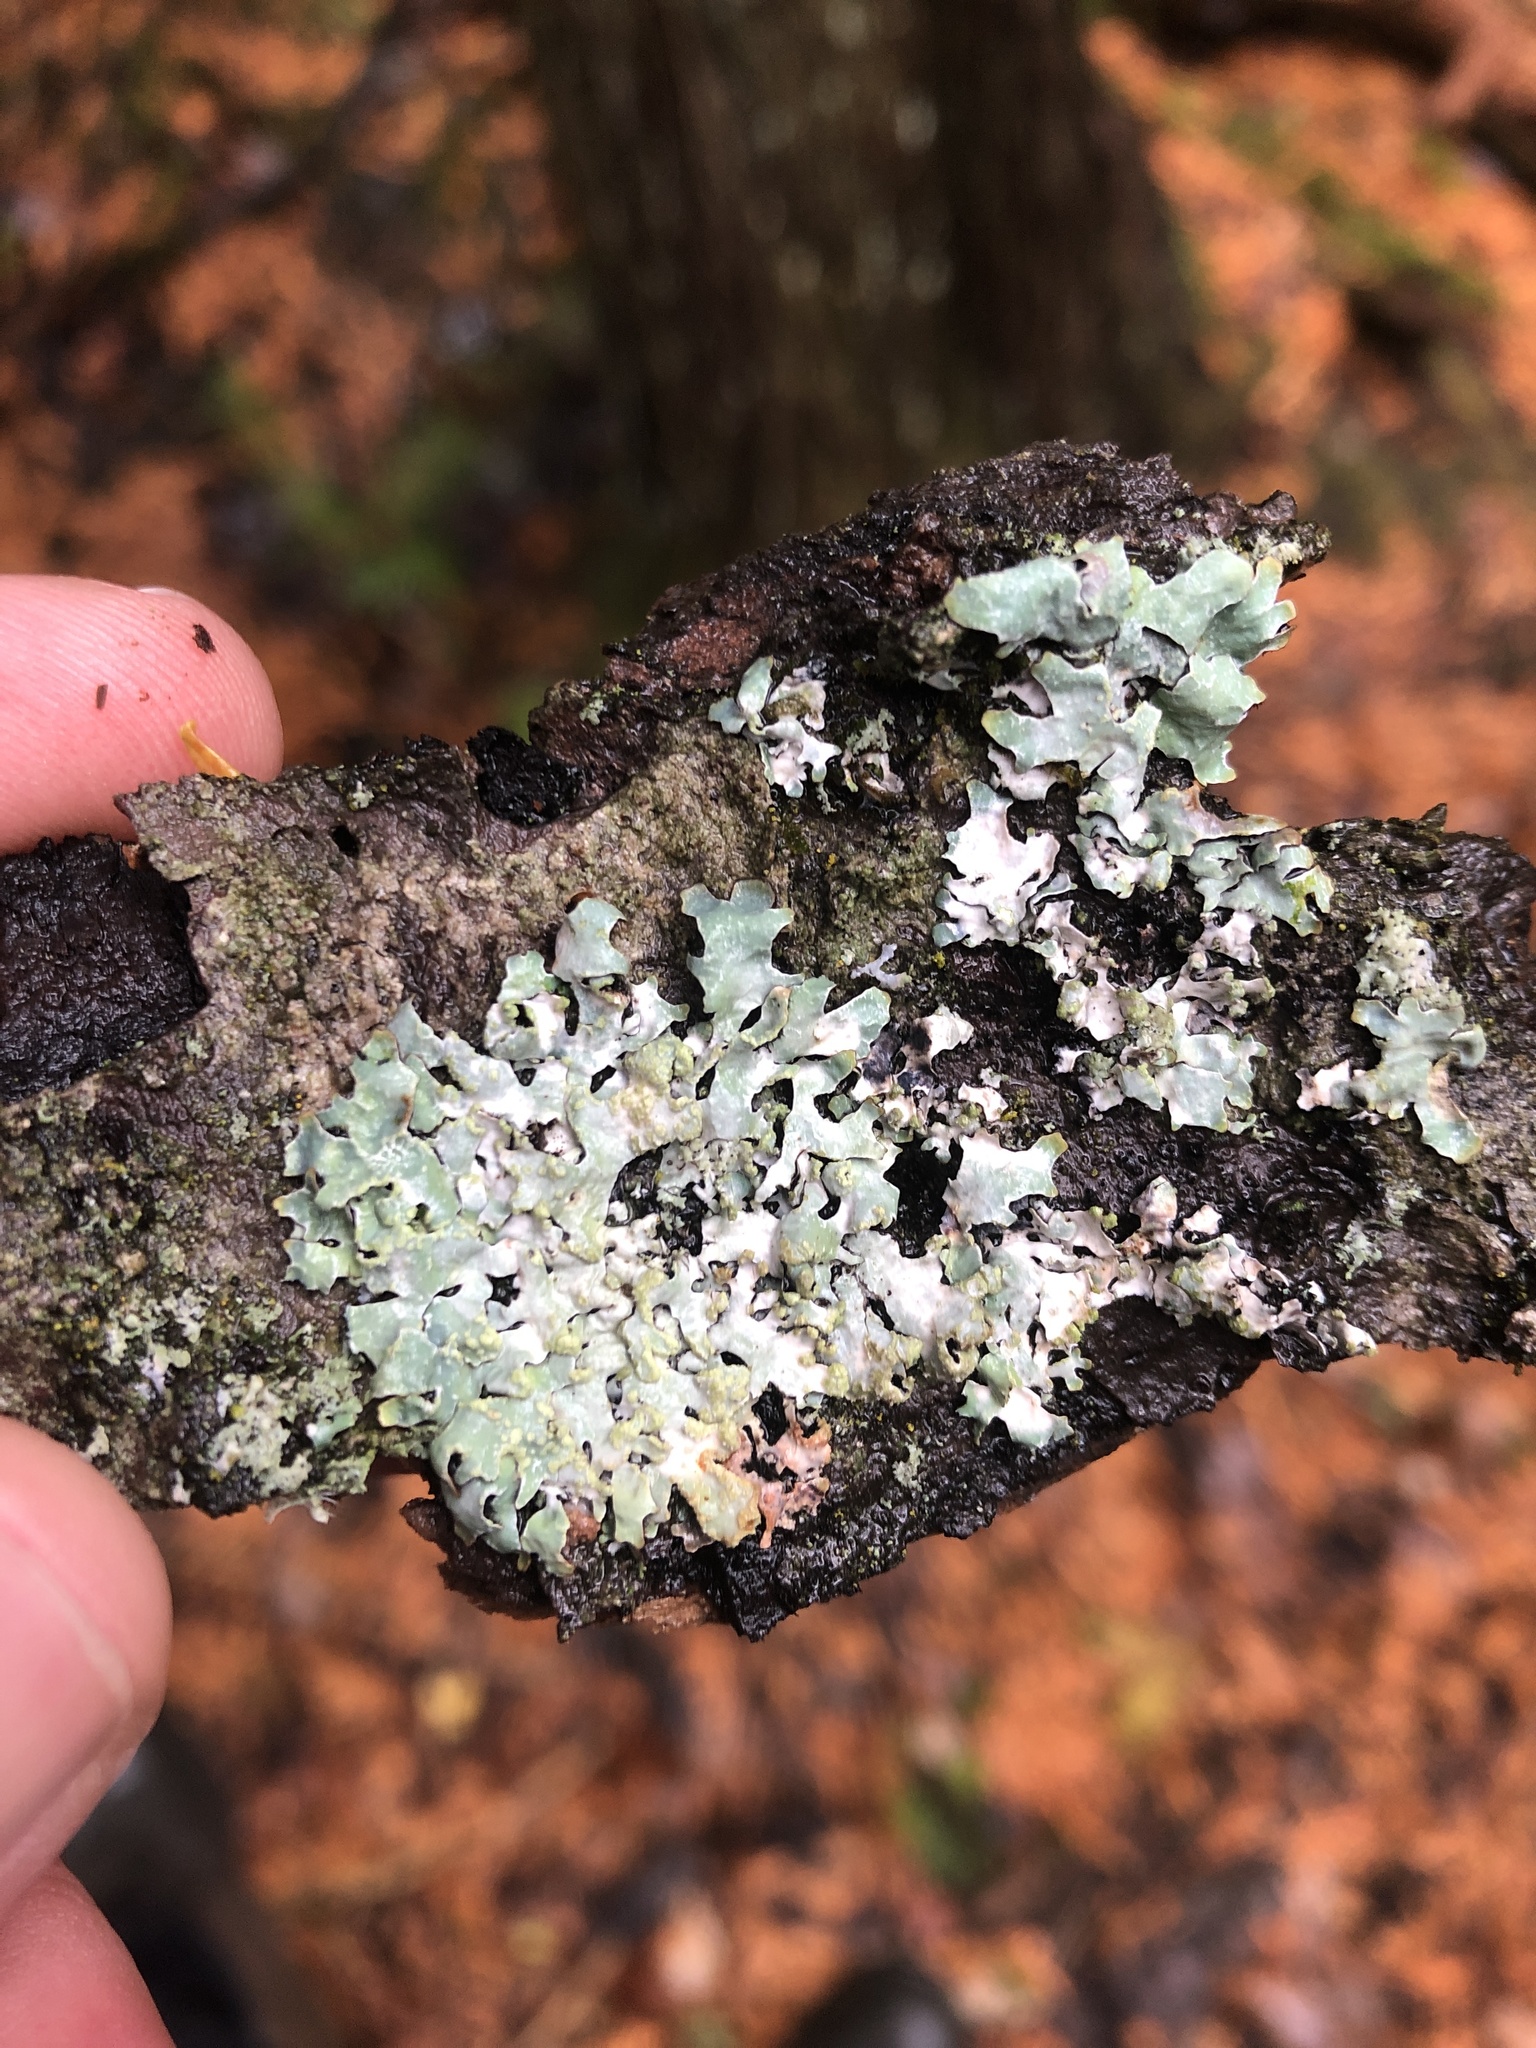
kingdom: Fungi
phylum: Ascomycota
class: Lecanoromycetes
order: Lecanorales
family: Parmeliaceae
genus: Parmelia
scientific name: Parmelia sulcata
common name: Netted shield lichen
